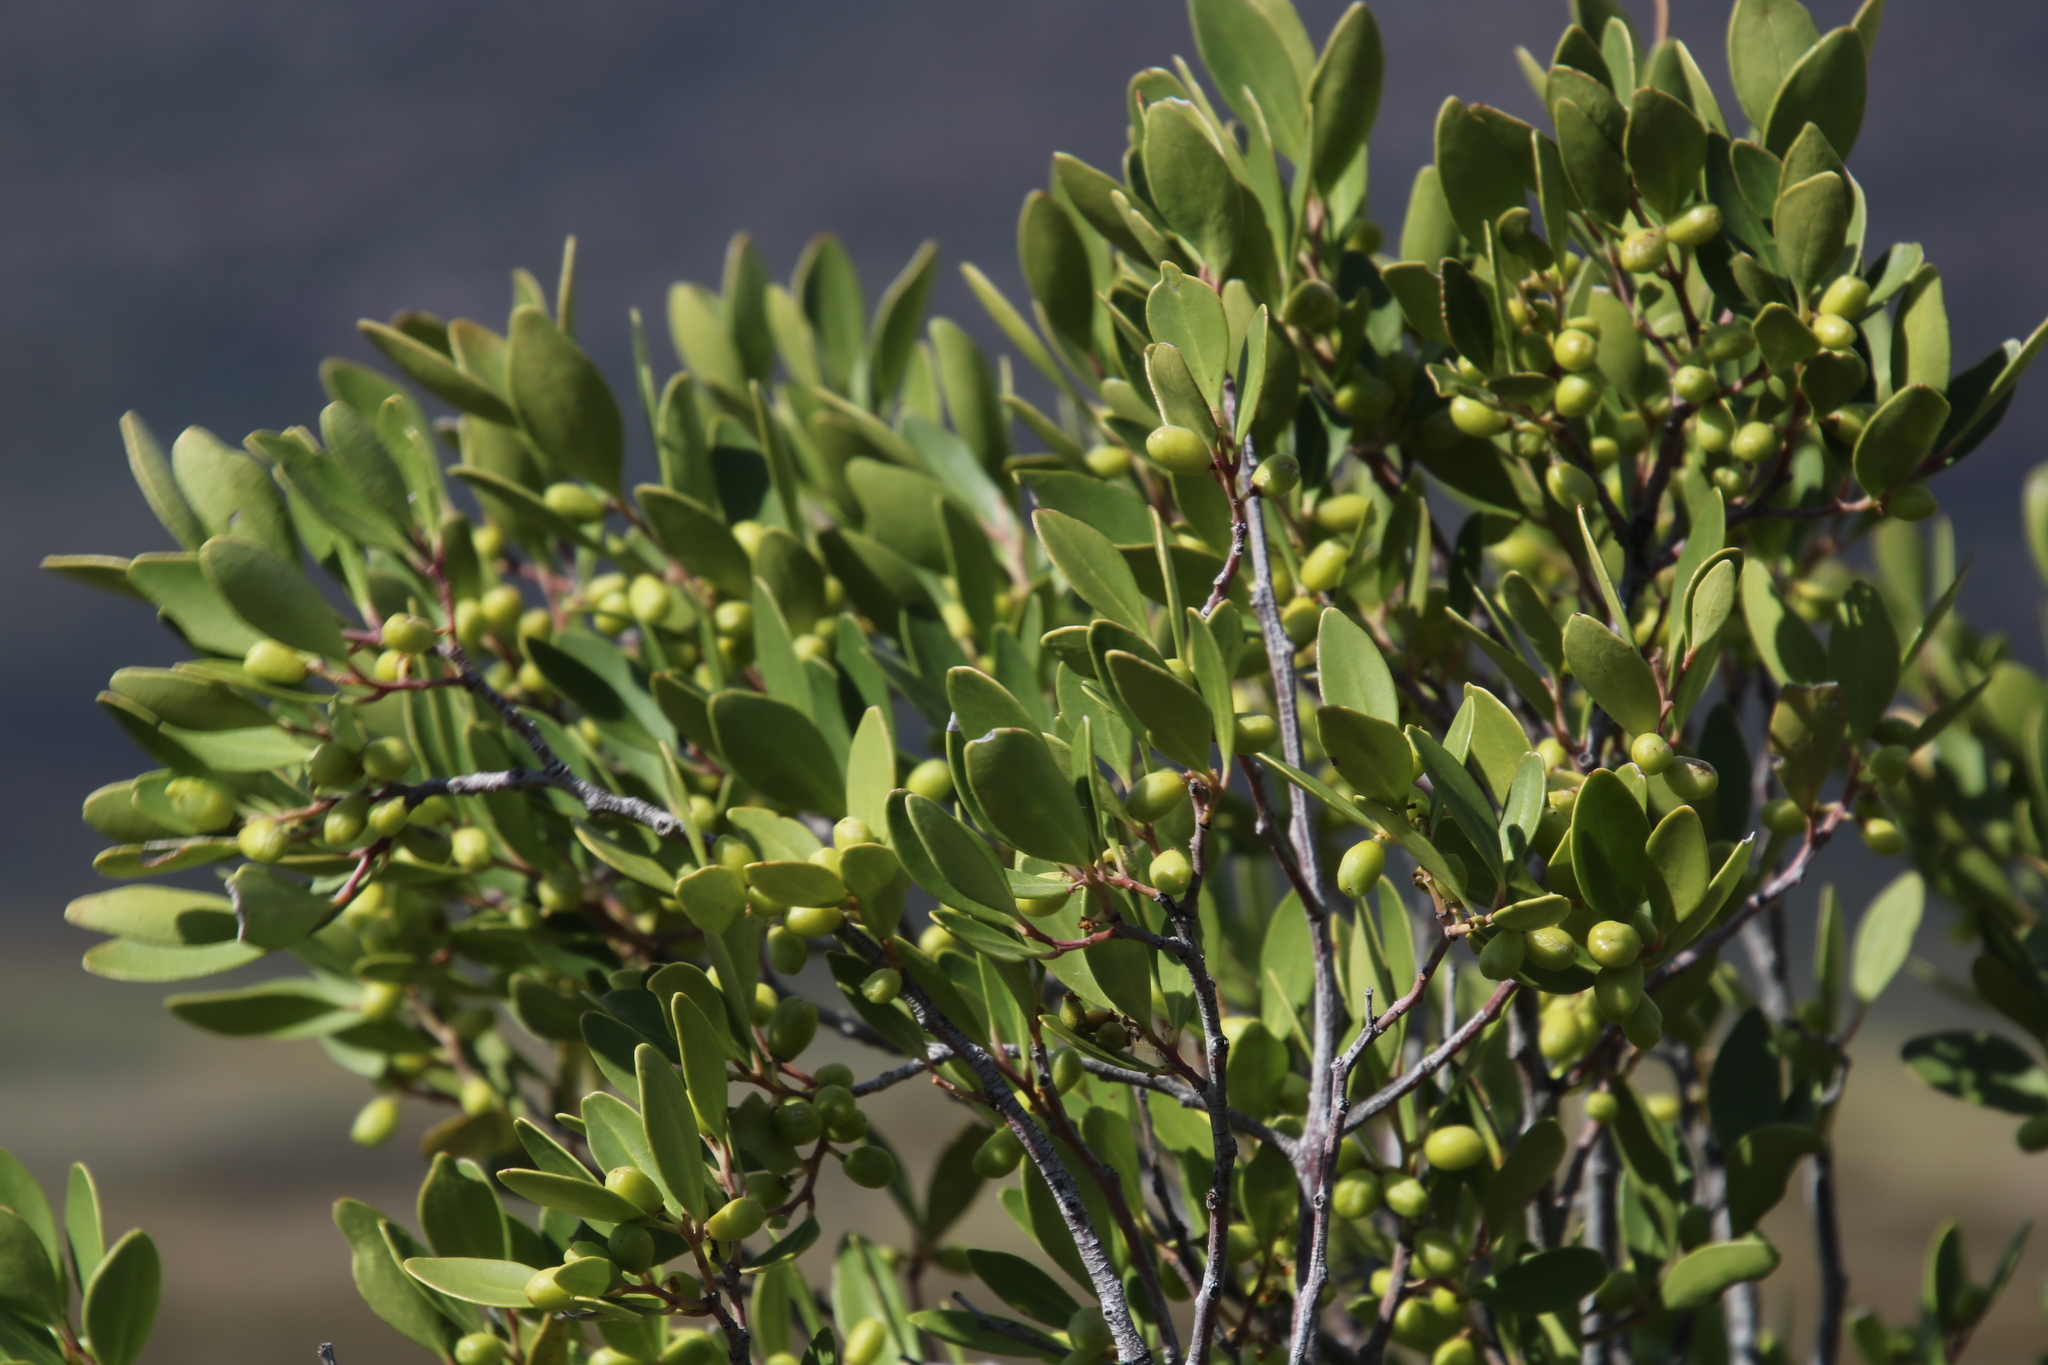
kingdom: Plantae
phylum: Tracheophyta
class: Magnoliopsida
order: Celastrales
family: Celastraceae
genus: Gymnosporia
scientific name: Gymnosporia laurina
